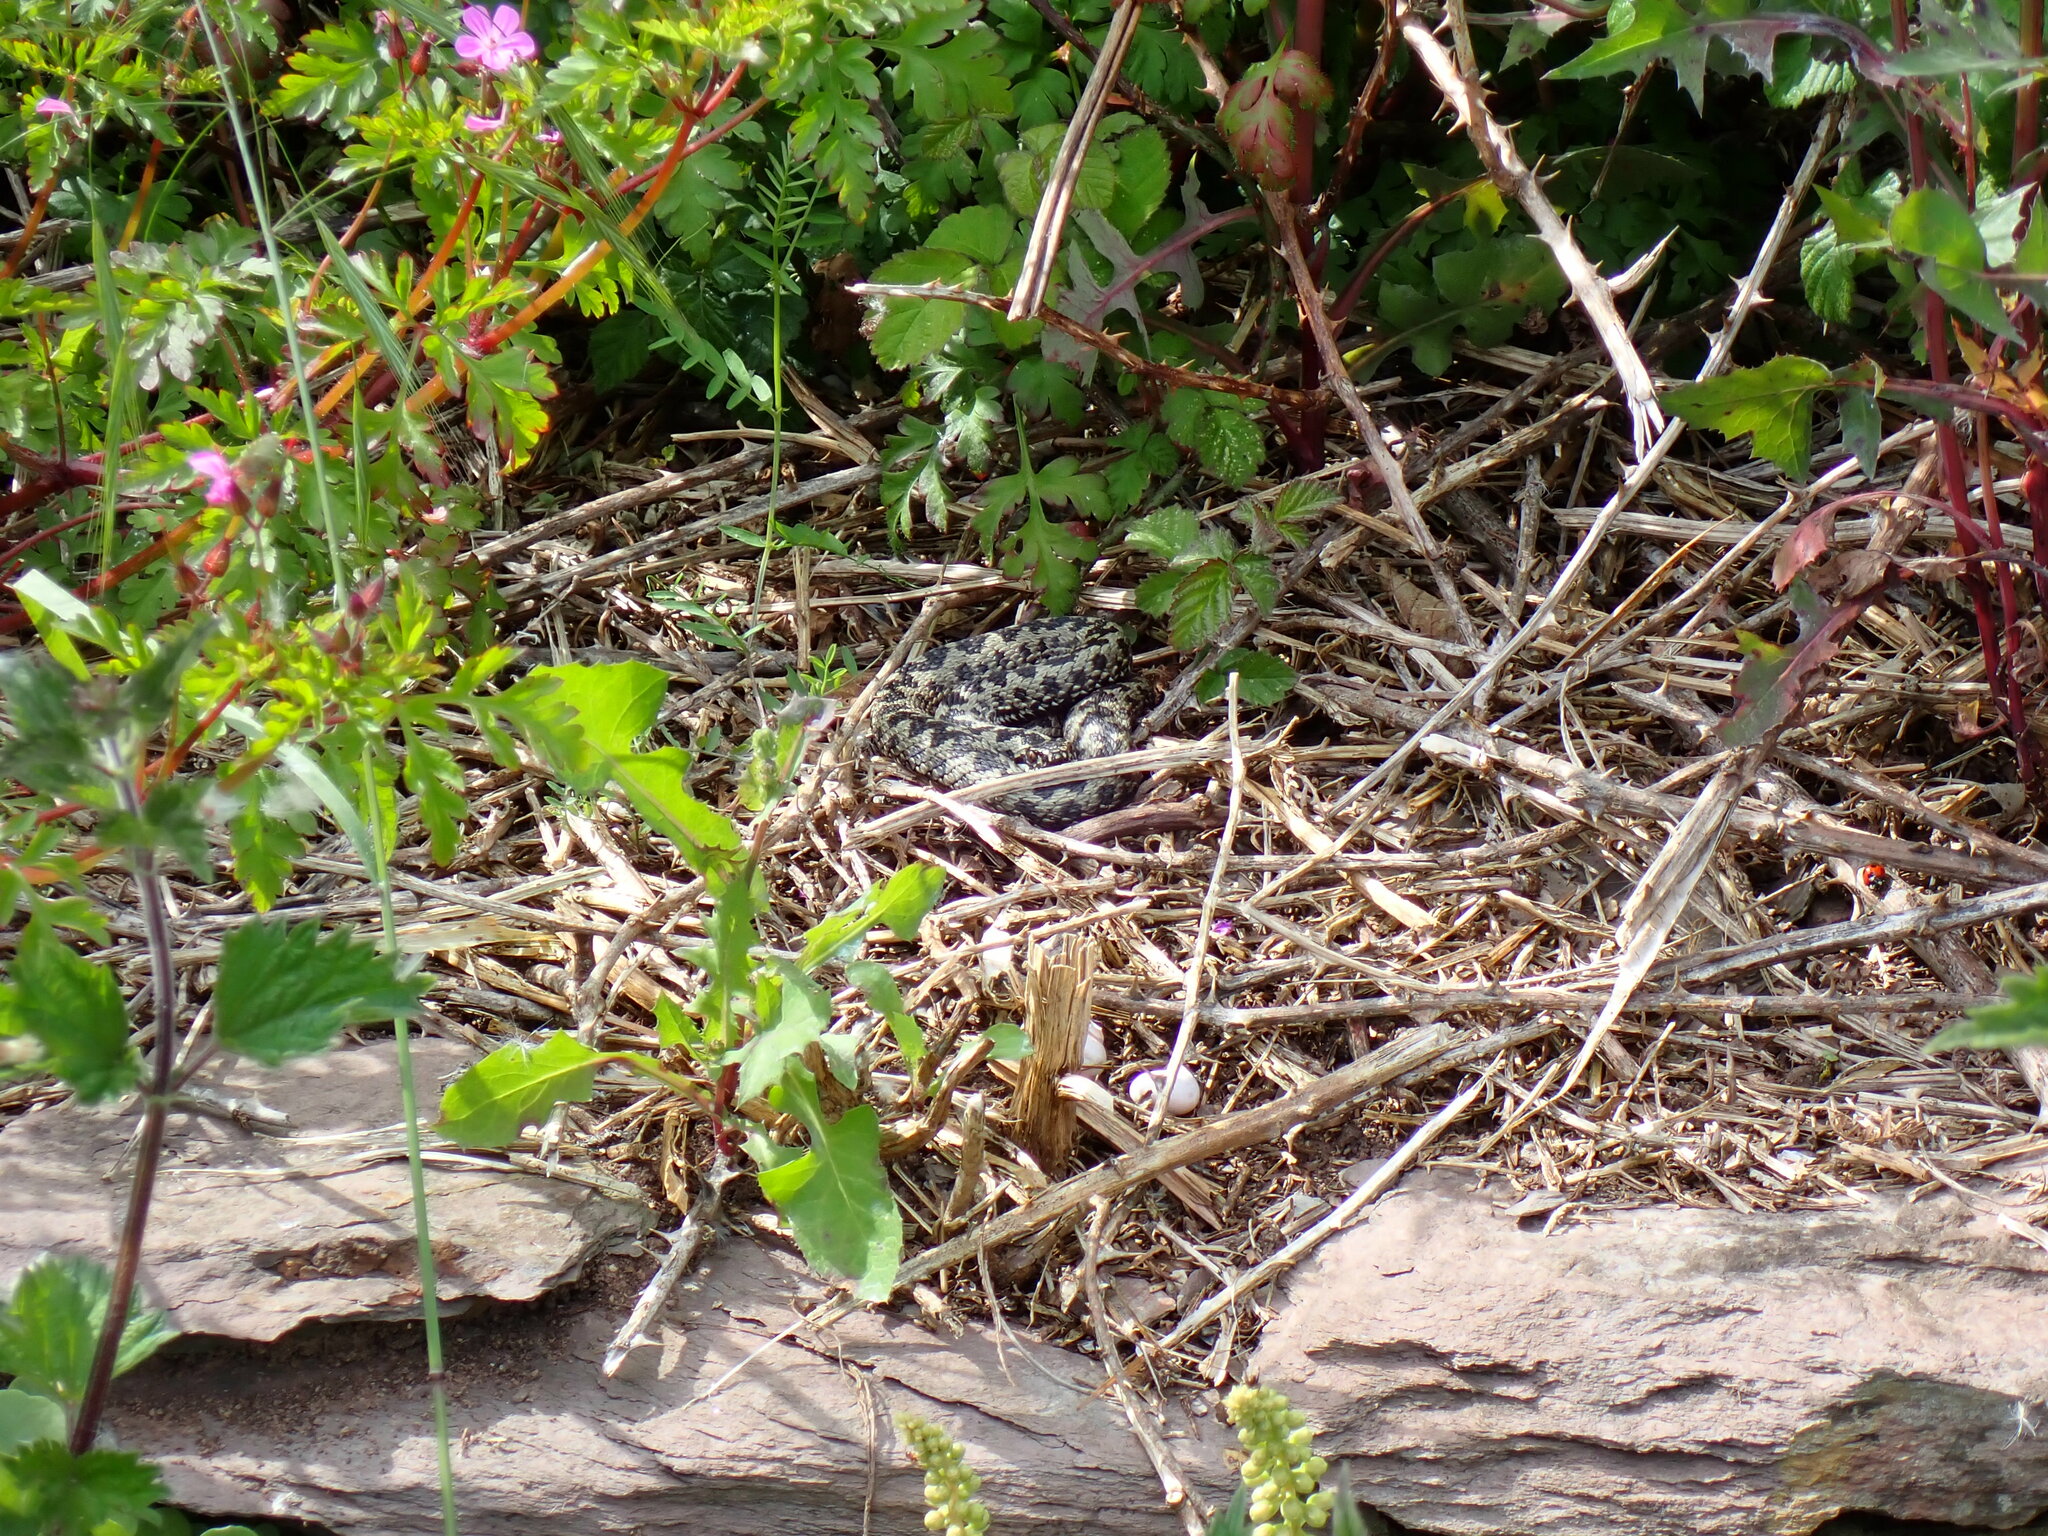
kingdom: Animalia
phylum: Chordata
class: Squamata
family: Viperidae
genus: Vipera
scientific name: Vipera berus
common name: Adder
